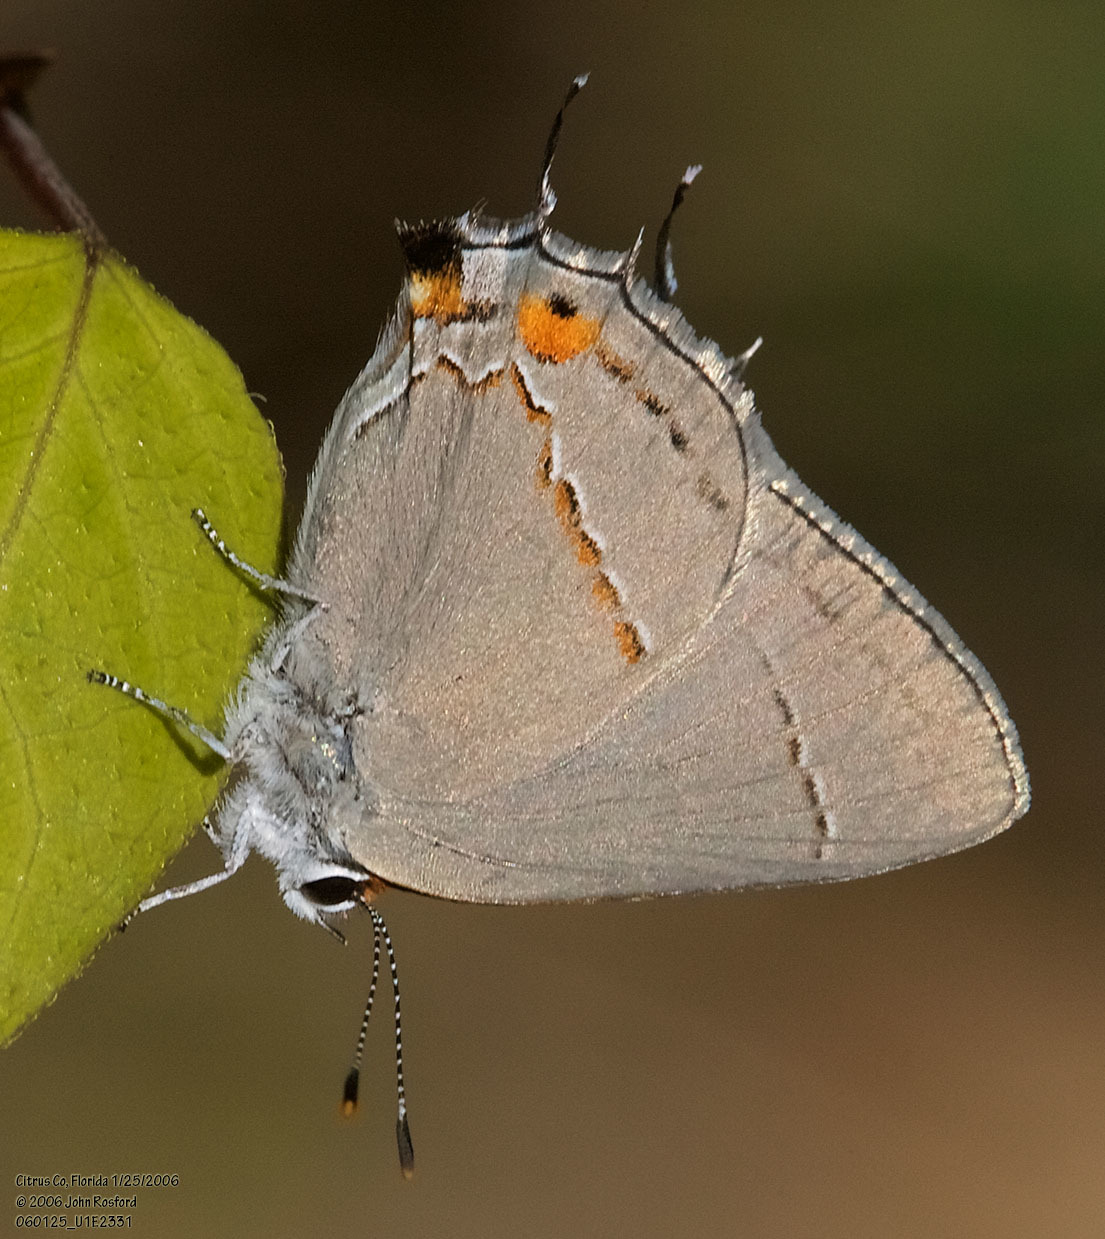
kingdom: Animalia
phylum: Arthropoda
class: Insecta
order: Lepidoptera
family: Lycaenidae
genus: Strymon
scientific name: Strymon melinus
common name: Gray hairstreak
